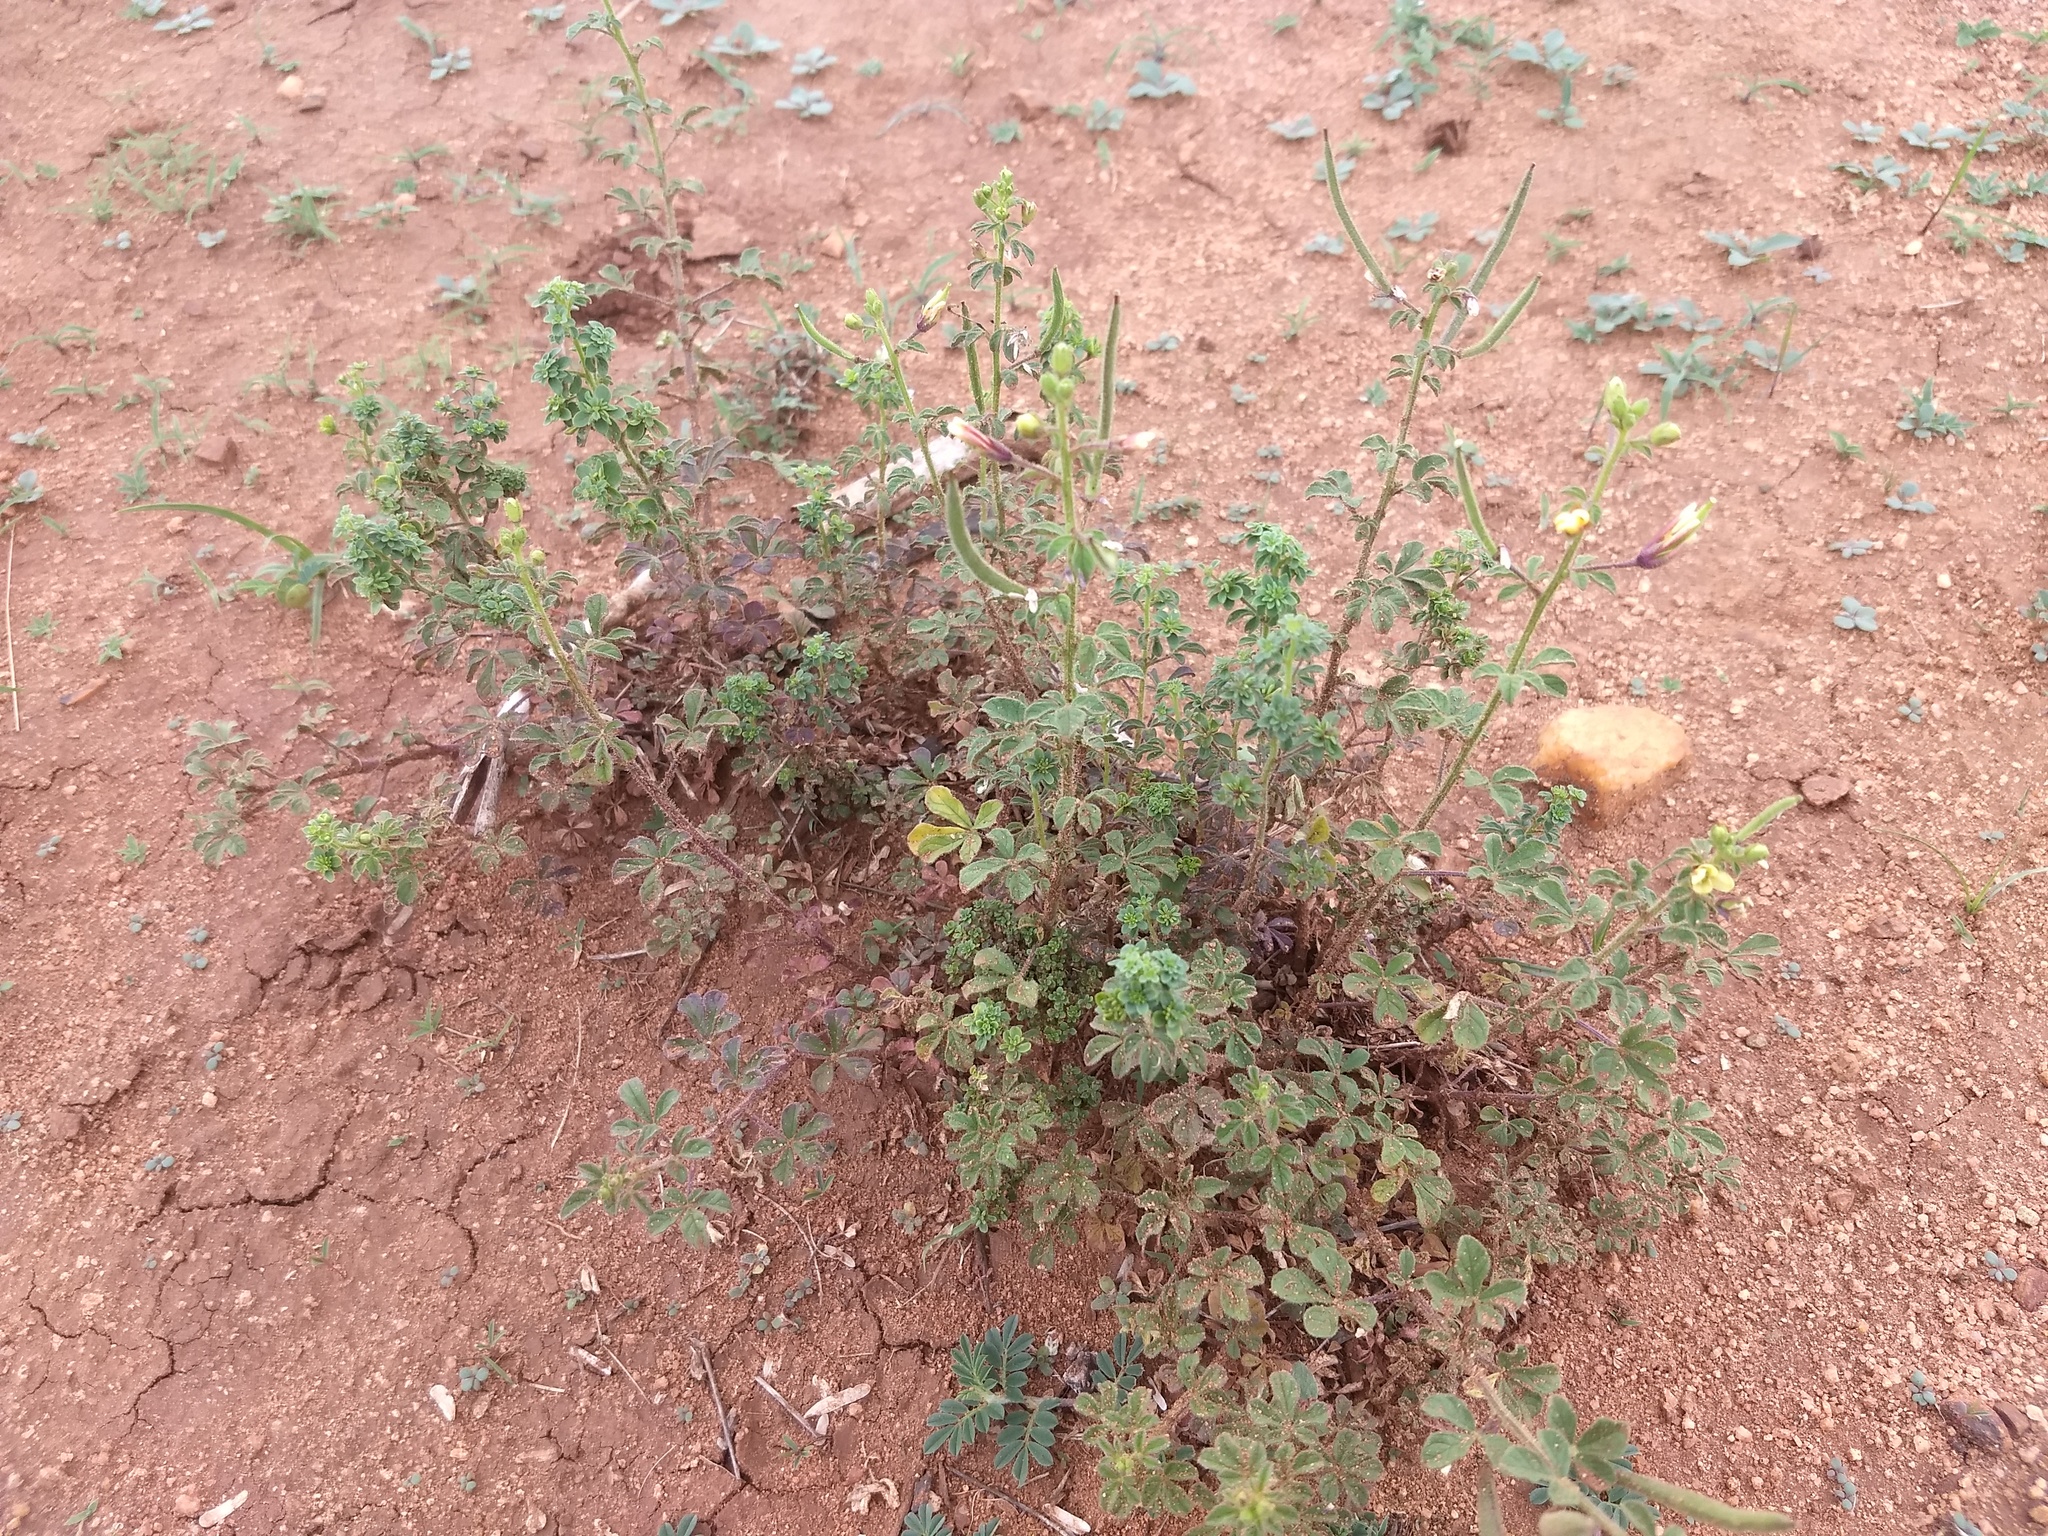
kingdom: Plantae
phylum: Tracheophyta
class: Magnoliopsida
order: Brassicales
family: Cleomaceae
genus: Arivela
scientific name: Arivela viscosa
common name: Asian spiderflower
